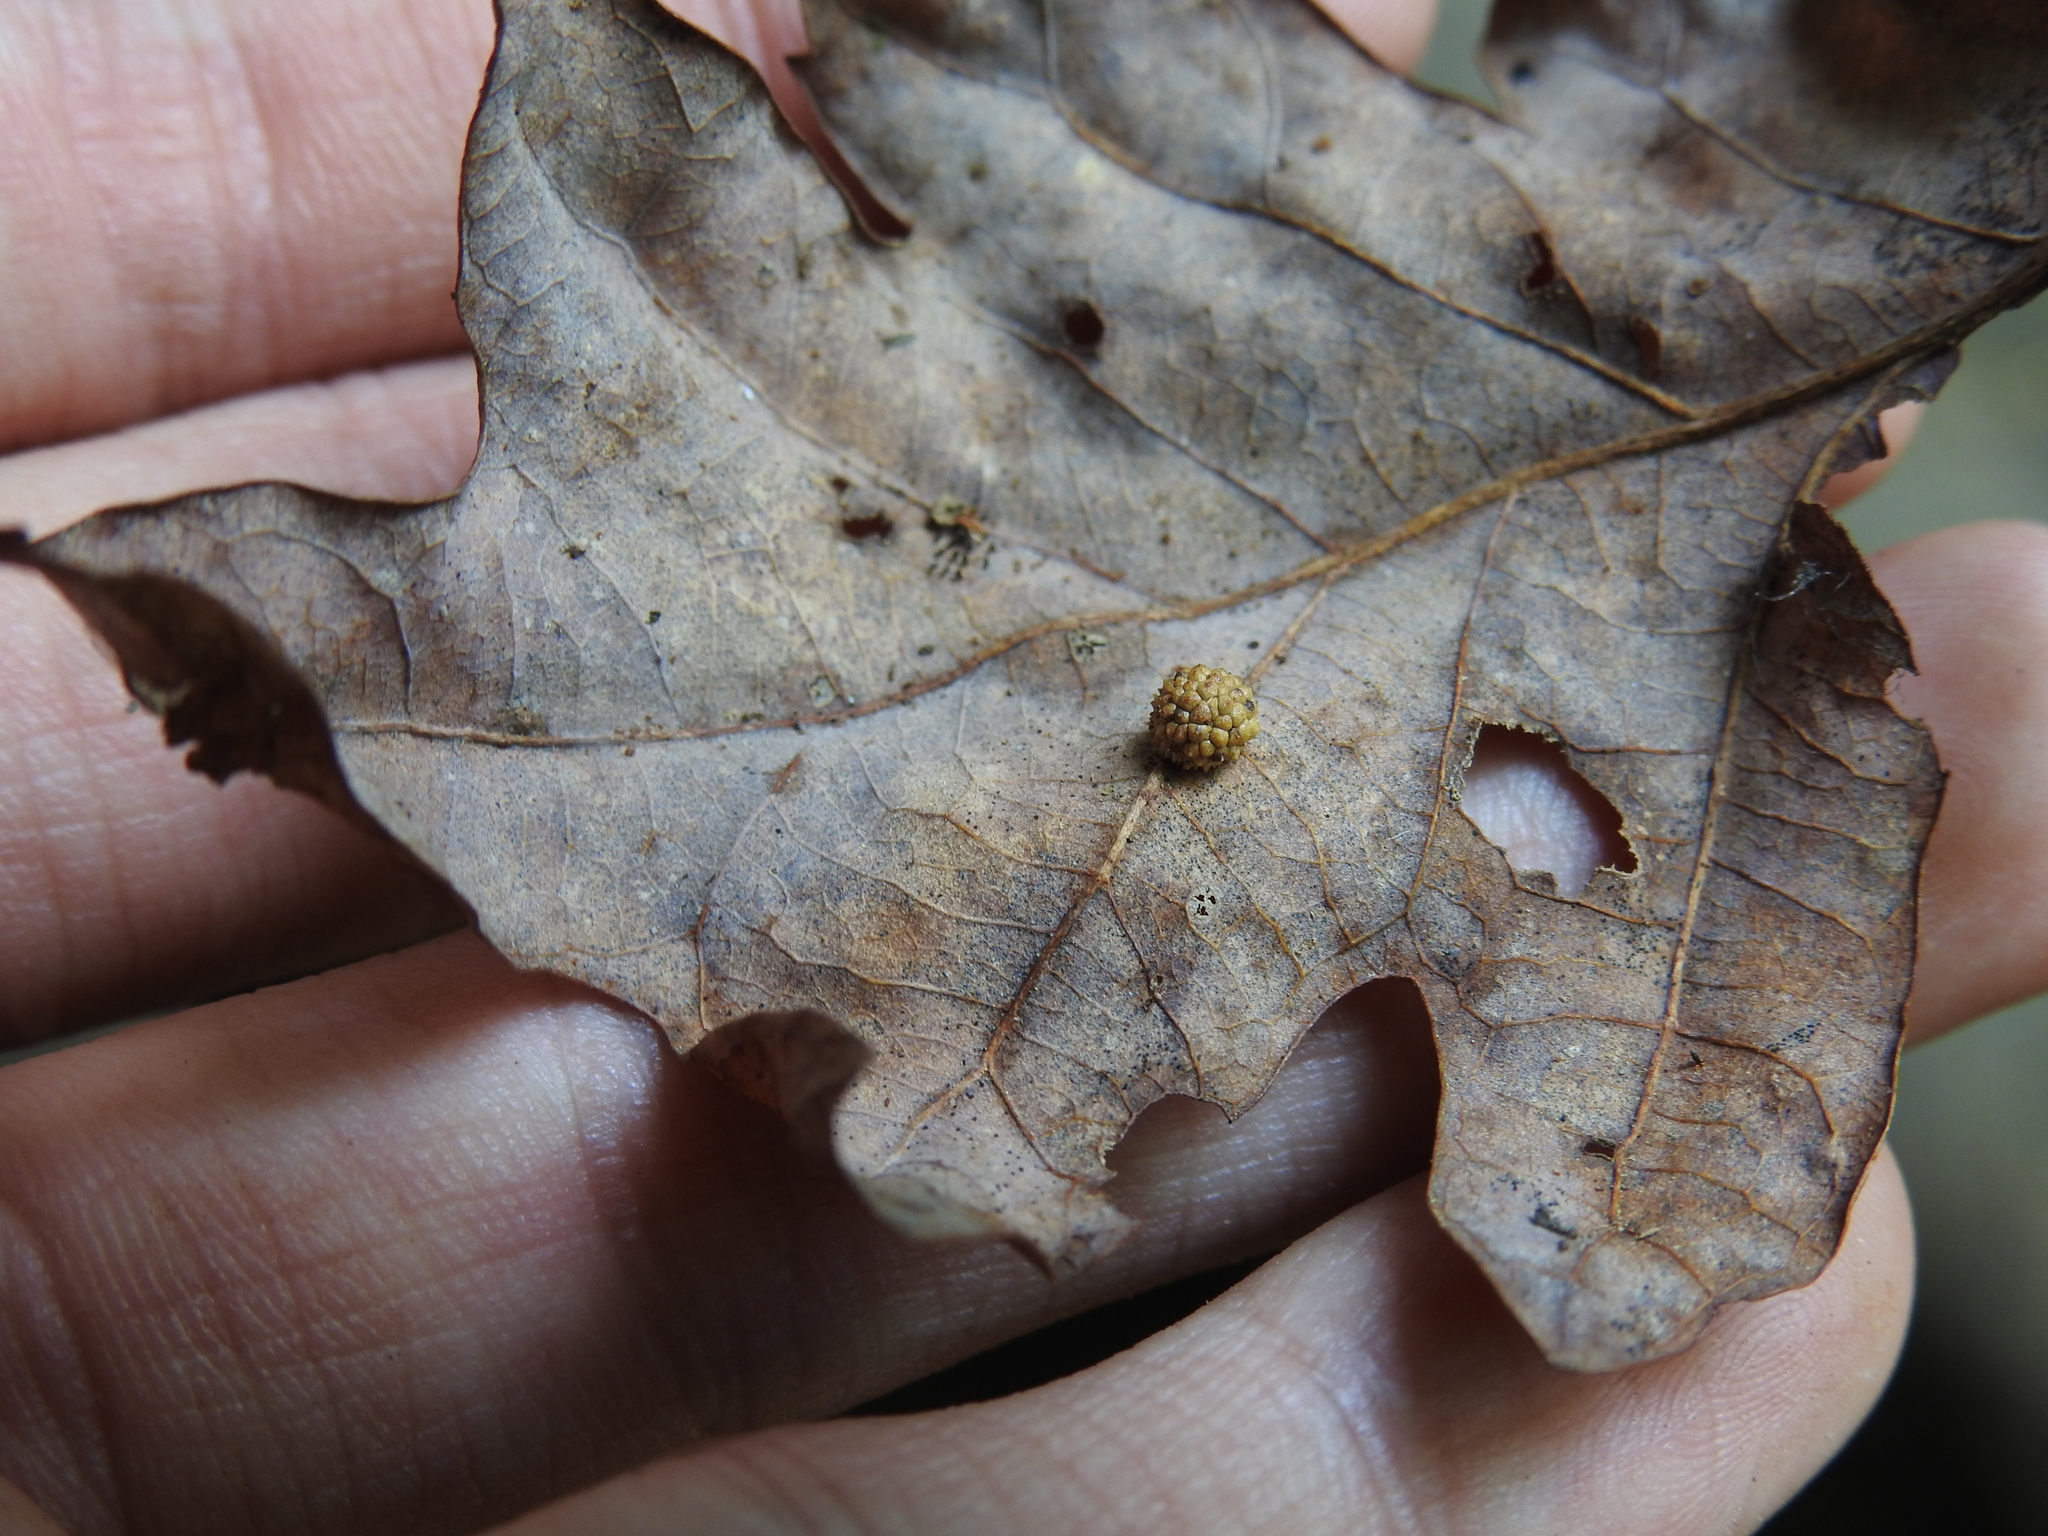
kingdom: Animalia
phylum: Arthropoda
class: Insecta
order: Hymenoptera
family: Cynipidae
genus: Acraspis
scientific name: Acraspis
